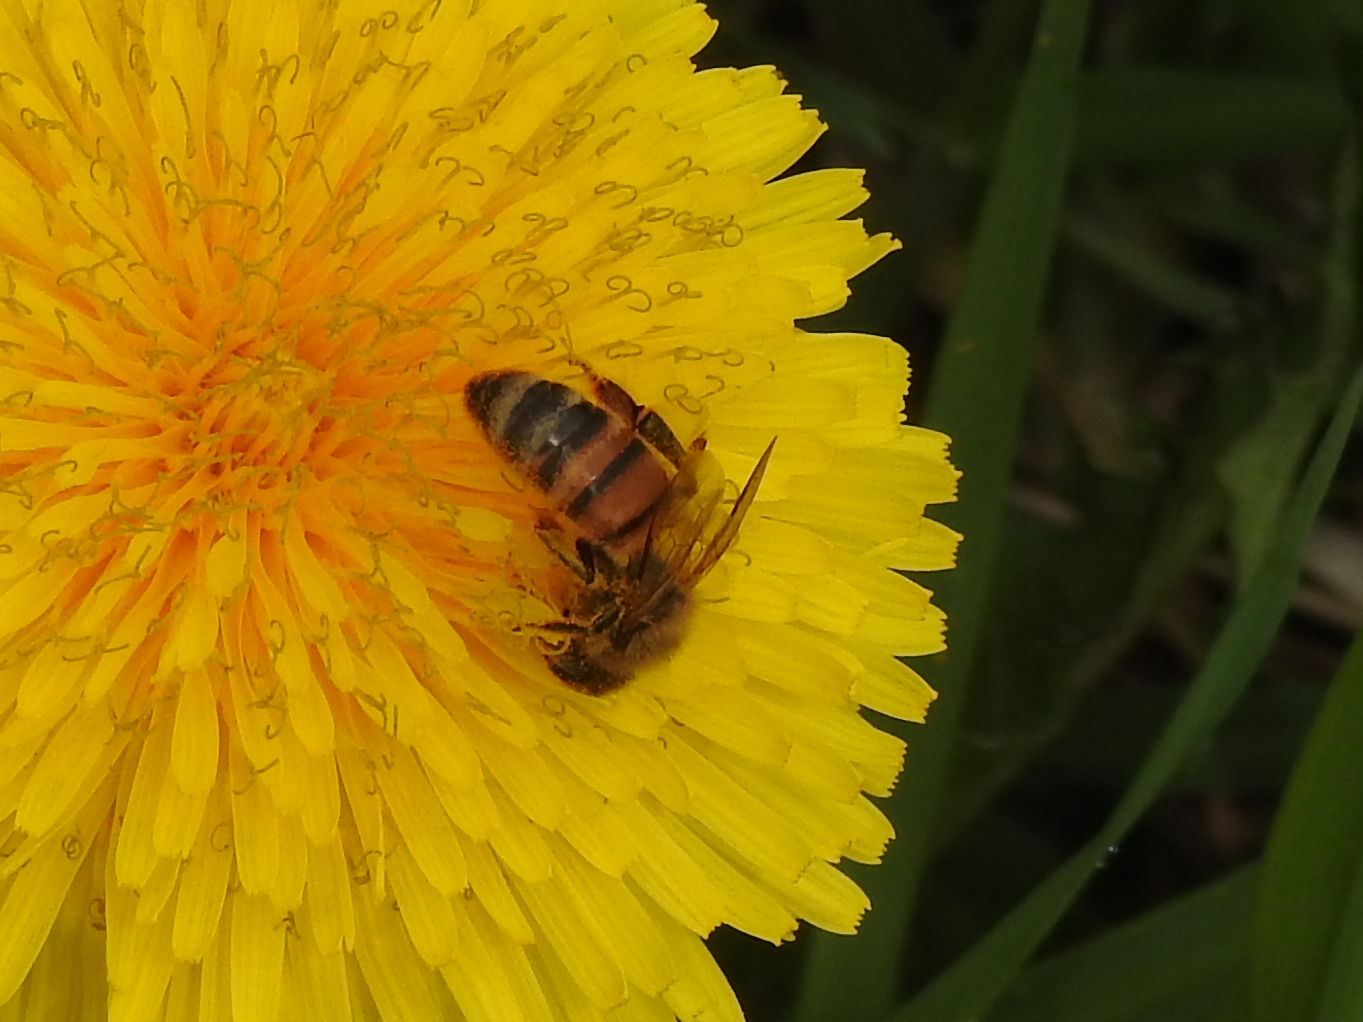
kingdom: Animalia
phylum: Arthropoda
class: Insecta
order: Hymenoptera
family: Apidae
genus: Apis
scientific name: Apis mellifera
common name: Honey bee
